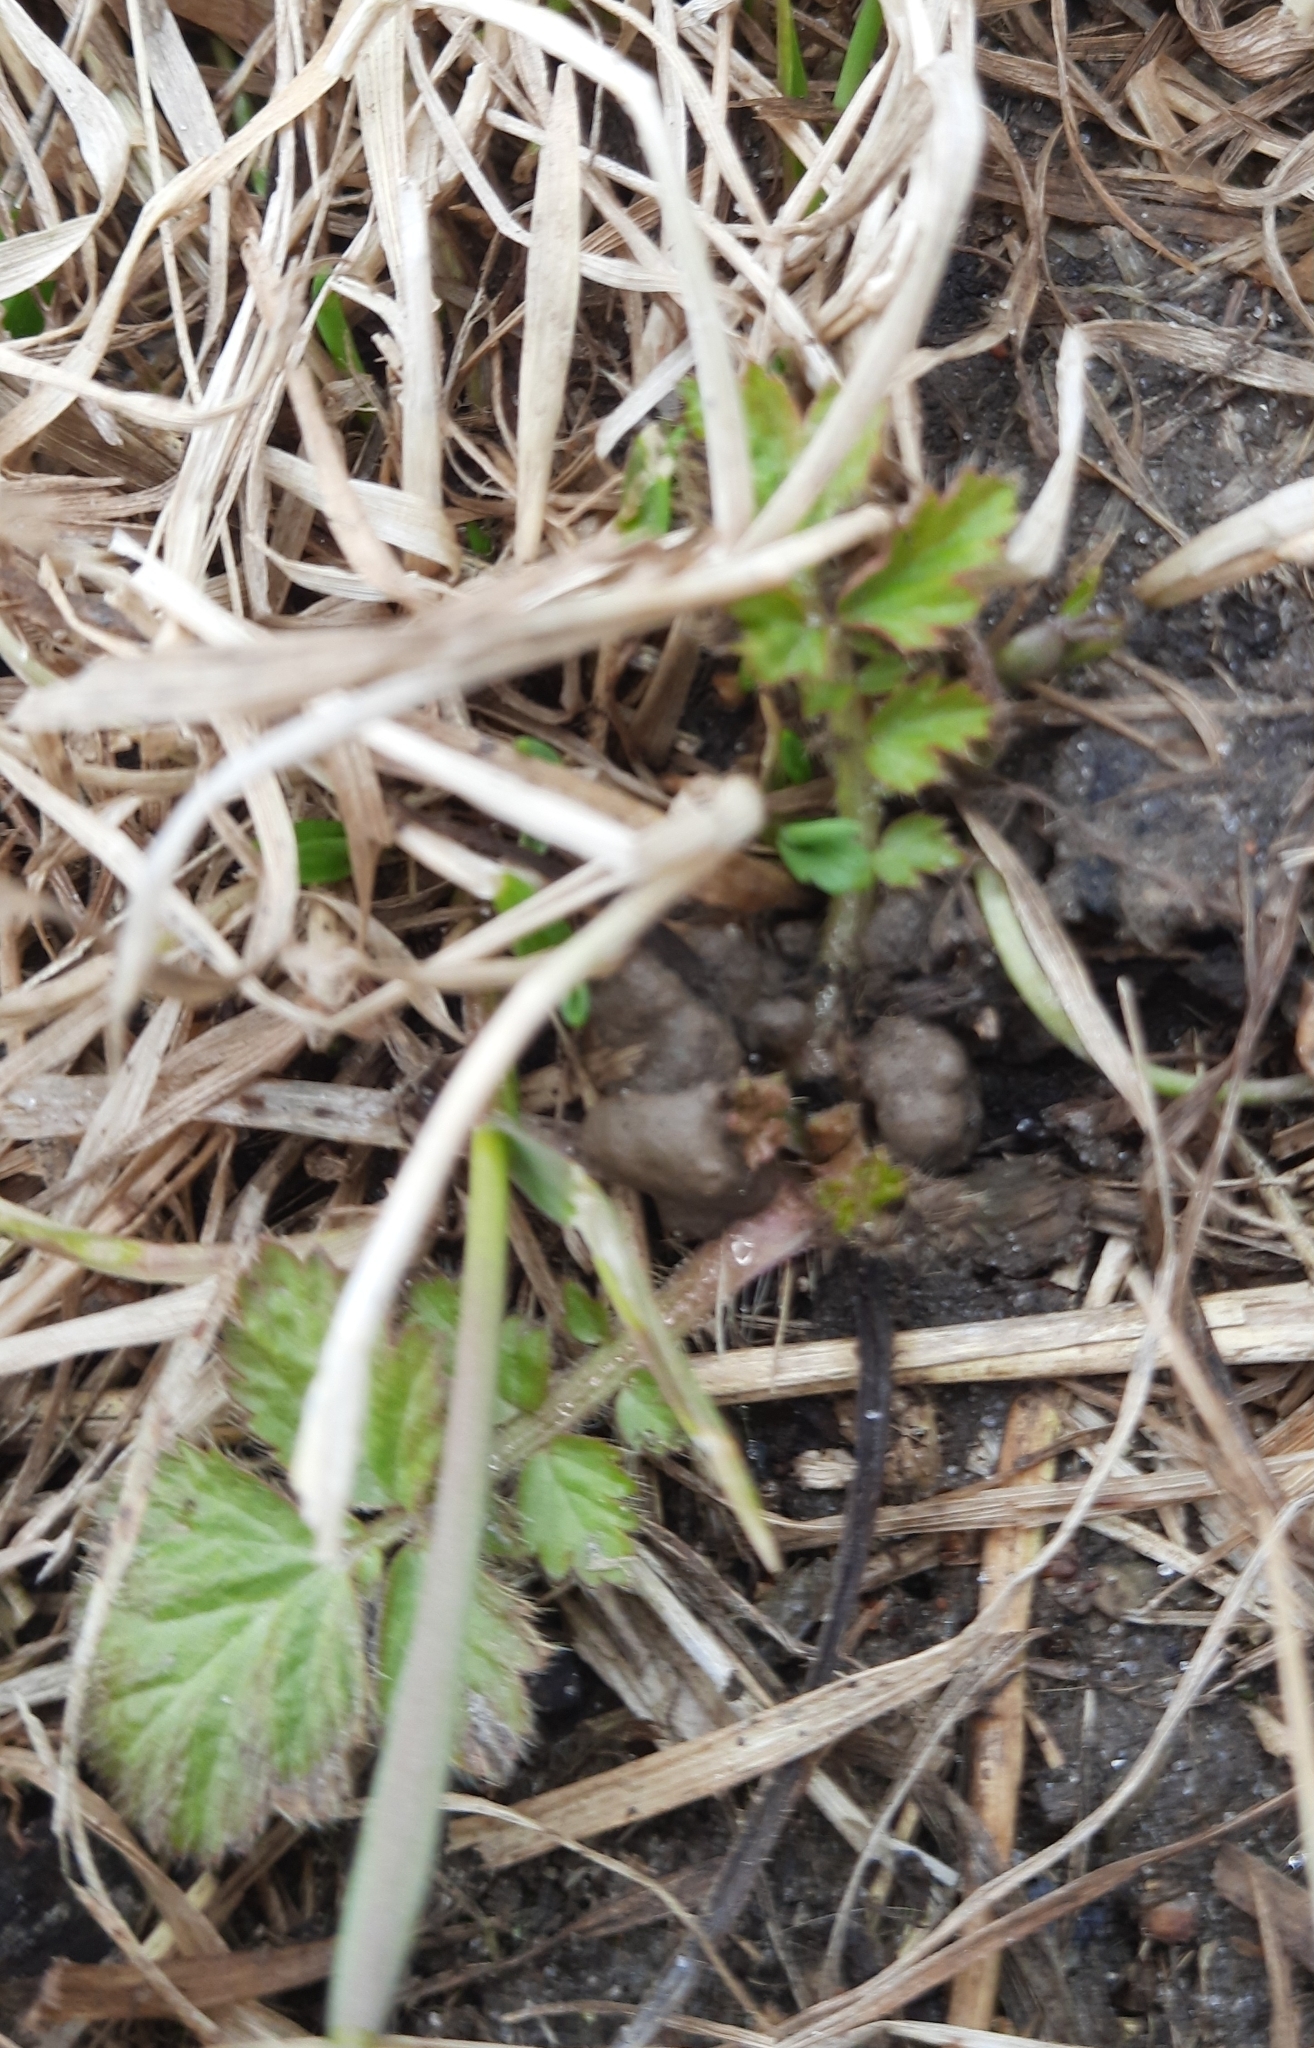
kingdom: Plantae
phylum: Tracheophyta
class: Magnoliopsida
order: Rosales
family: Rosaceae
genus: Geum
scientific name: Geum aleppicum
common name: Yellow avens
